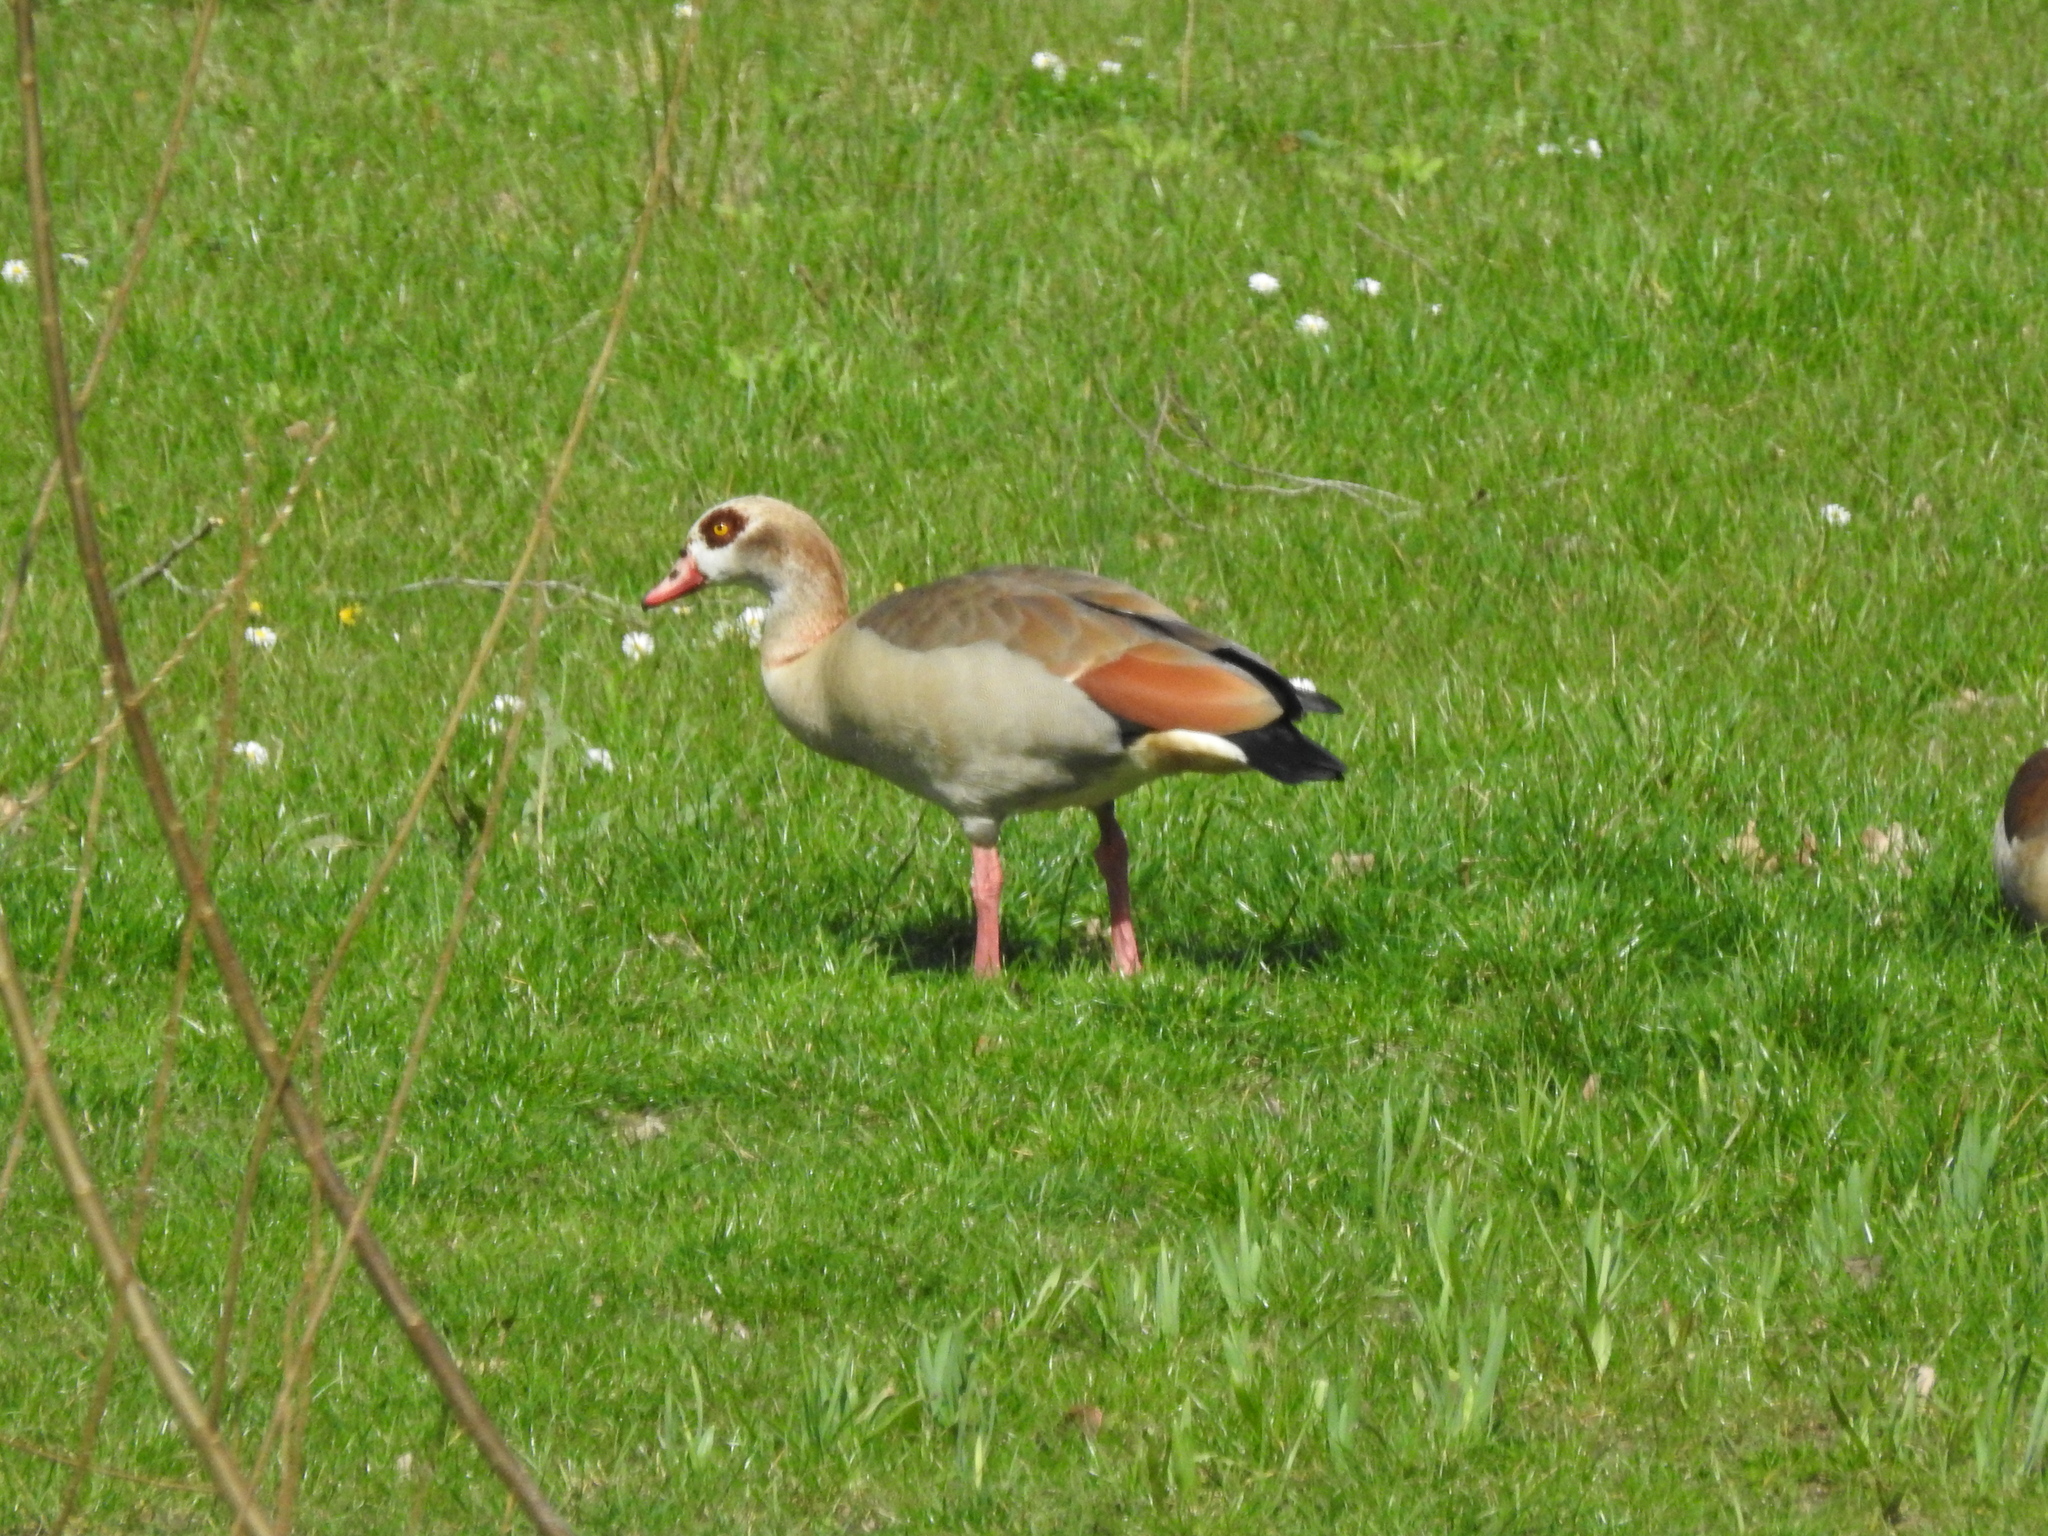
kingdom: Animalia
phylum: Chordata
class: Aves
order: Anseriformes
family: Anatidae
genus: Alopochen
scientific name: Alopochen aegyptiaca
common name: Egyptian goose
